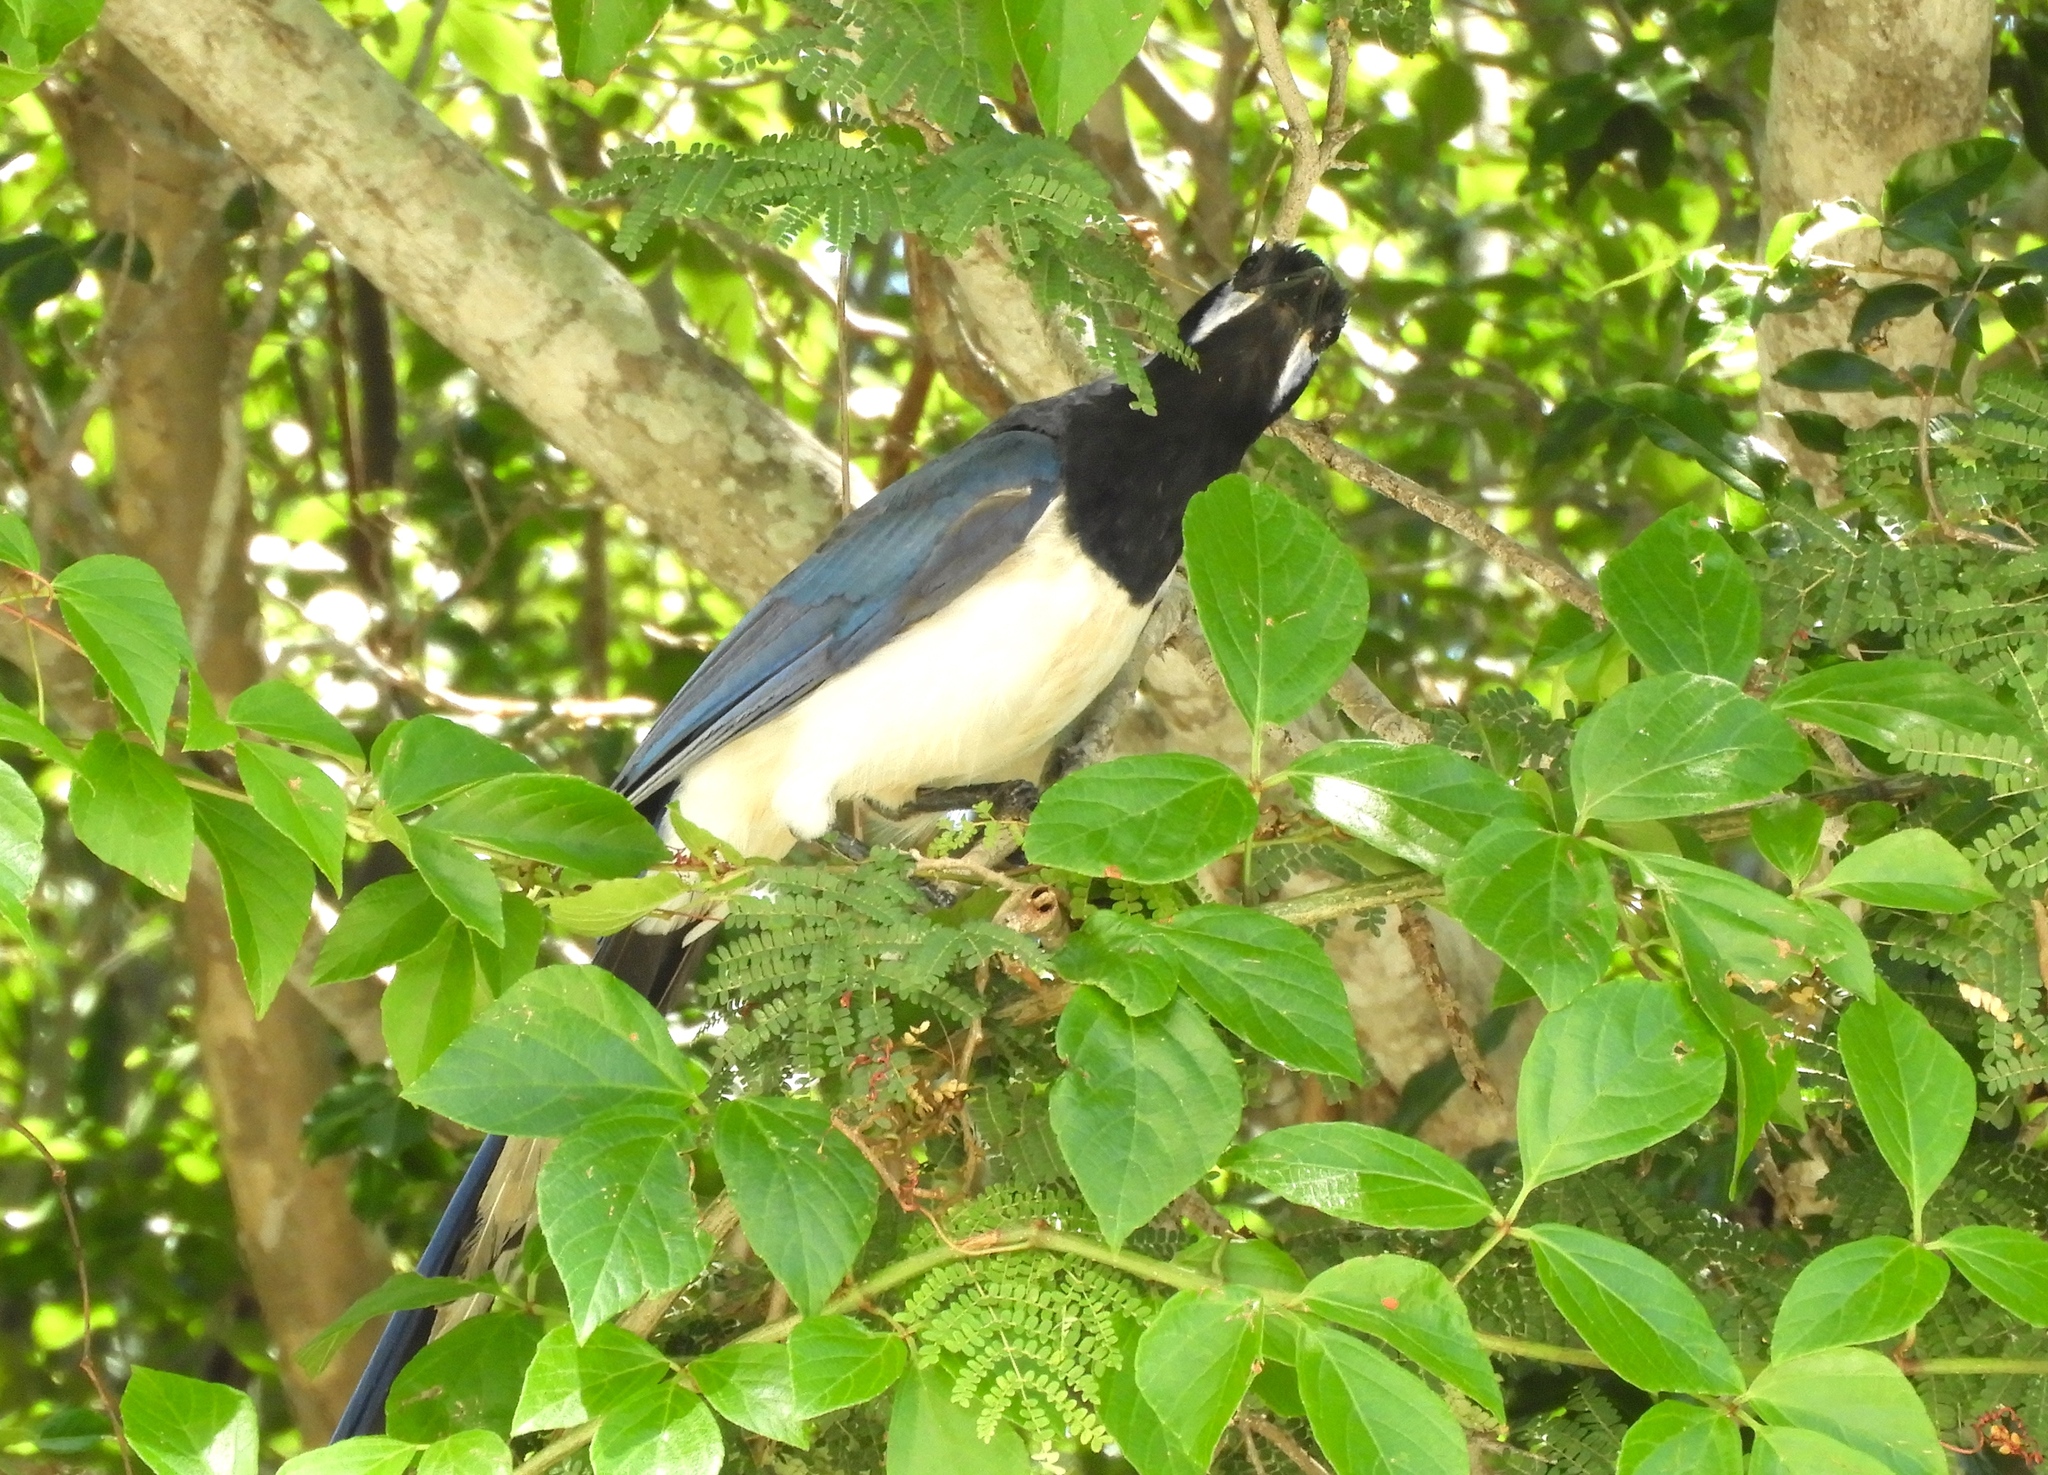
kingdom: Animalia
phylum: Chordata
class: Aves
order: Passeriformes
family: Corvidae
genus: Calocitta
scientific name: Calocitta colliei
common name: Black-throated magpie-jay
